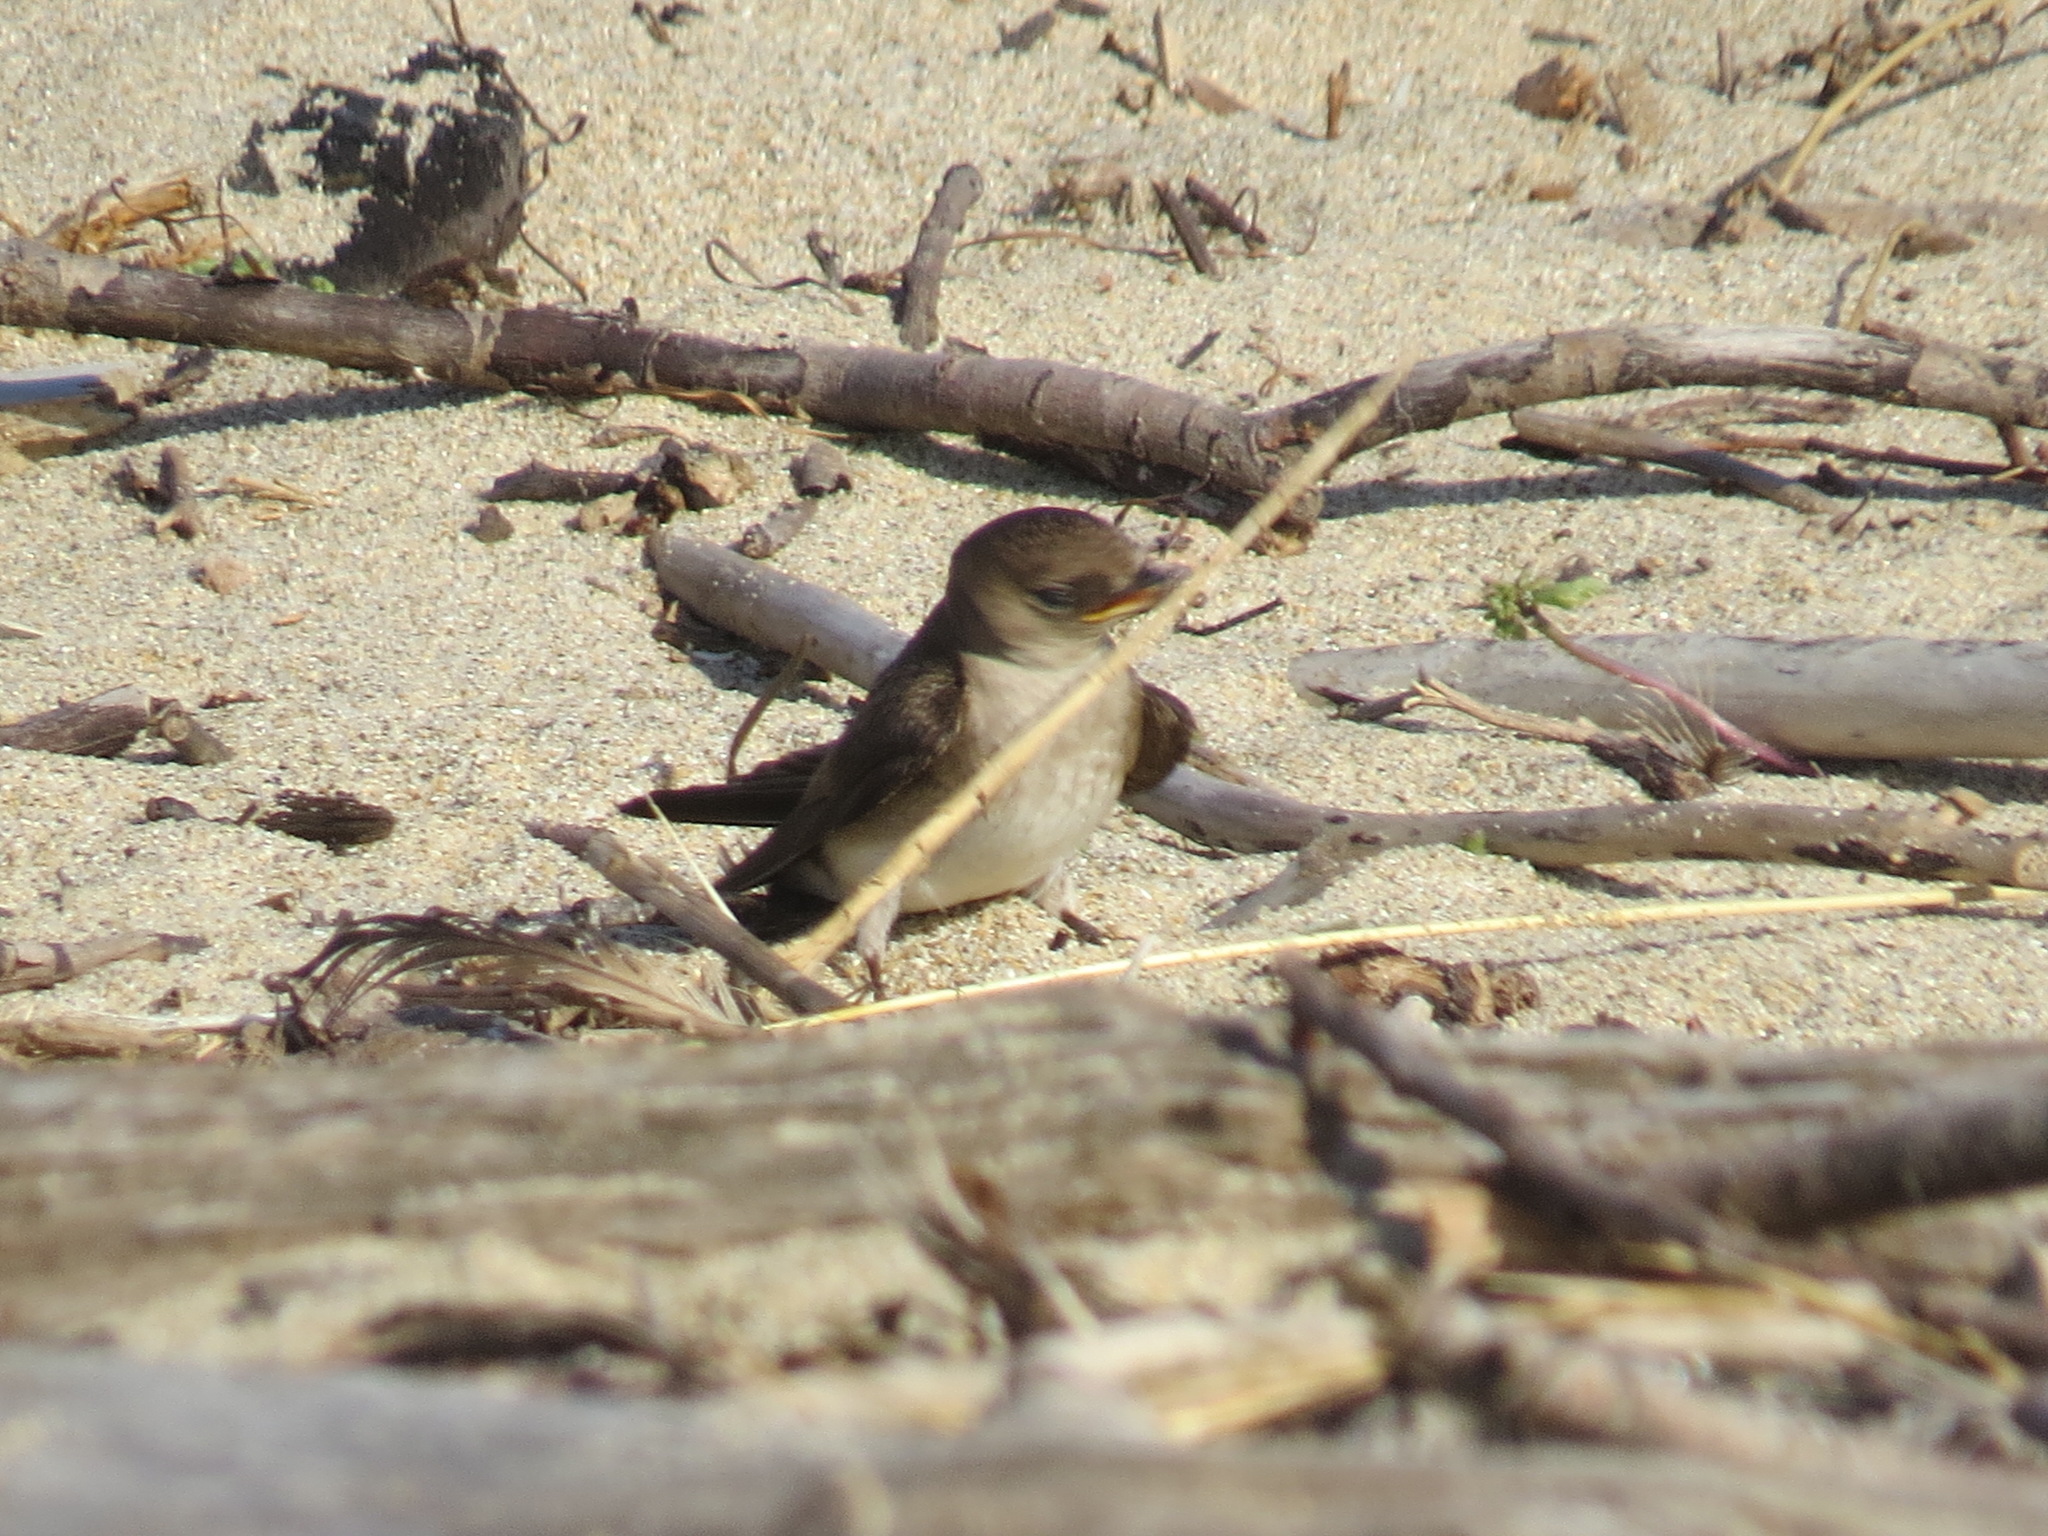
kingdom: Animalia
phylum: Chordata
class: Aves
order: Passeriformes
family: Hirundinidae
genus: Stelgidopteryx
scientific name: Stelgidopteryx serripennis
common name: Northern rough-winged swallow
